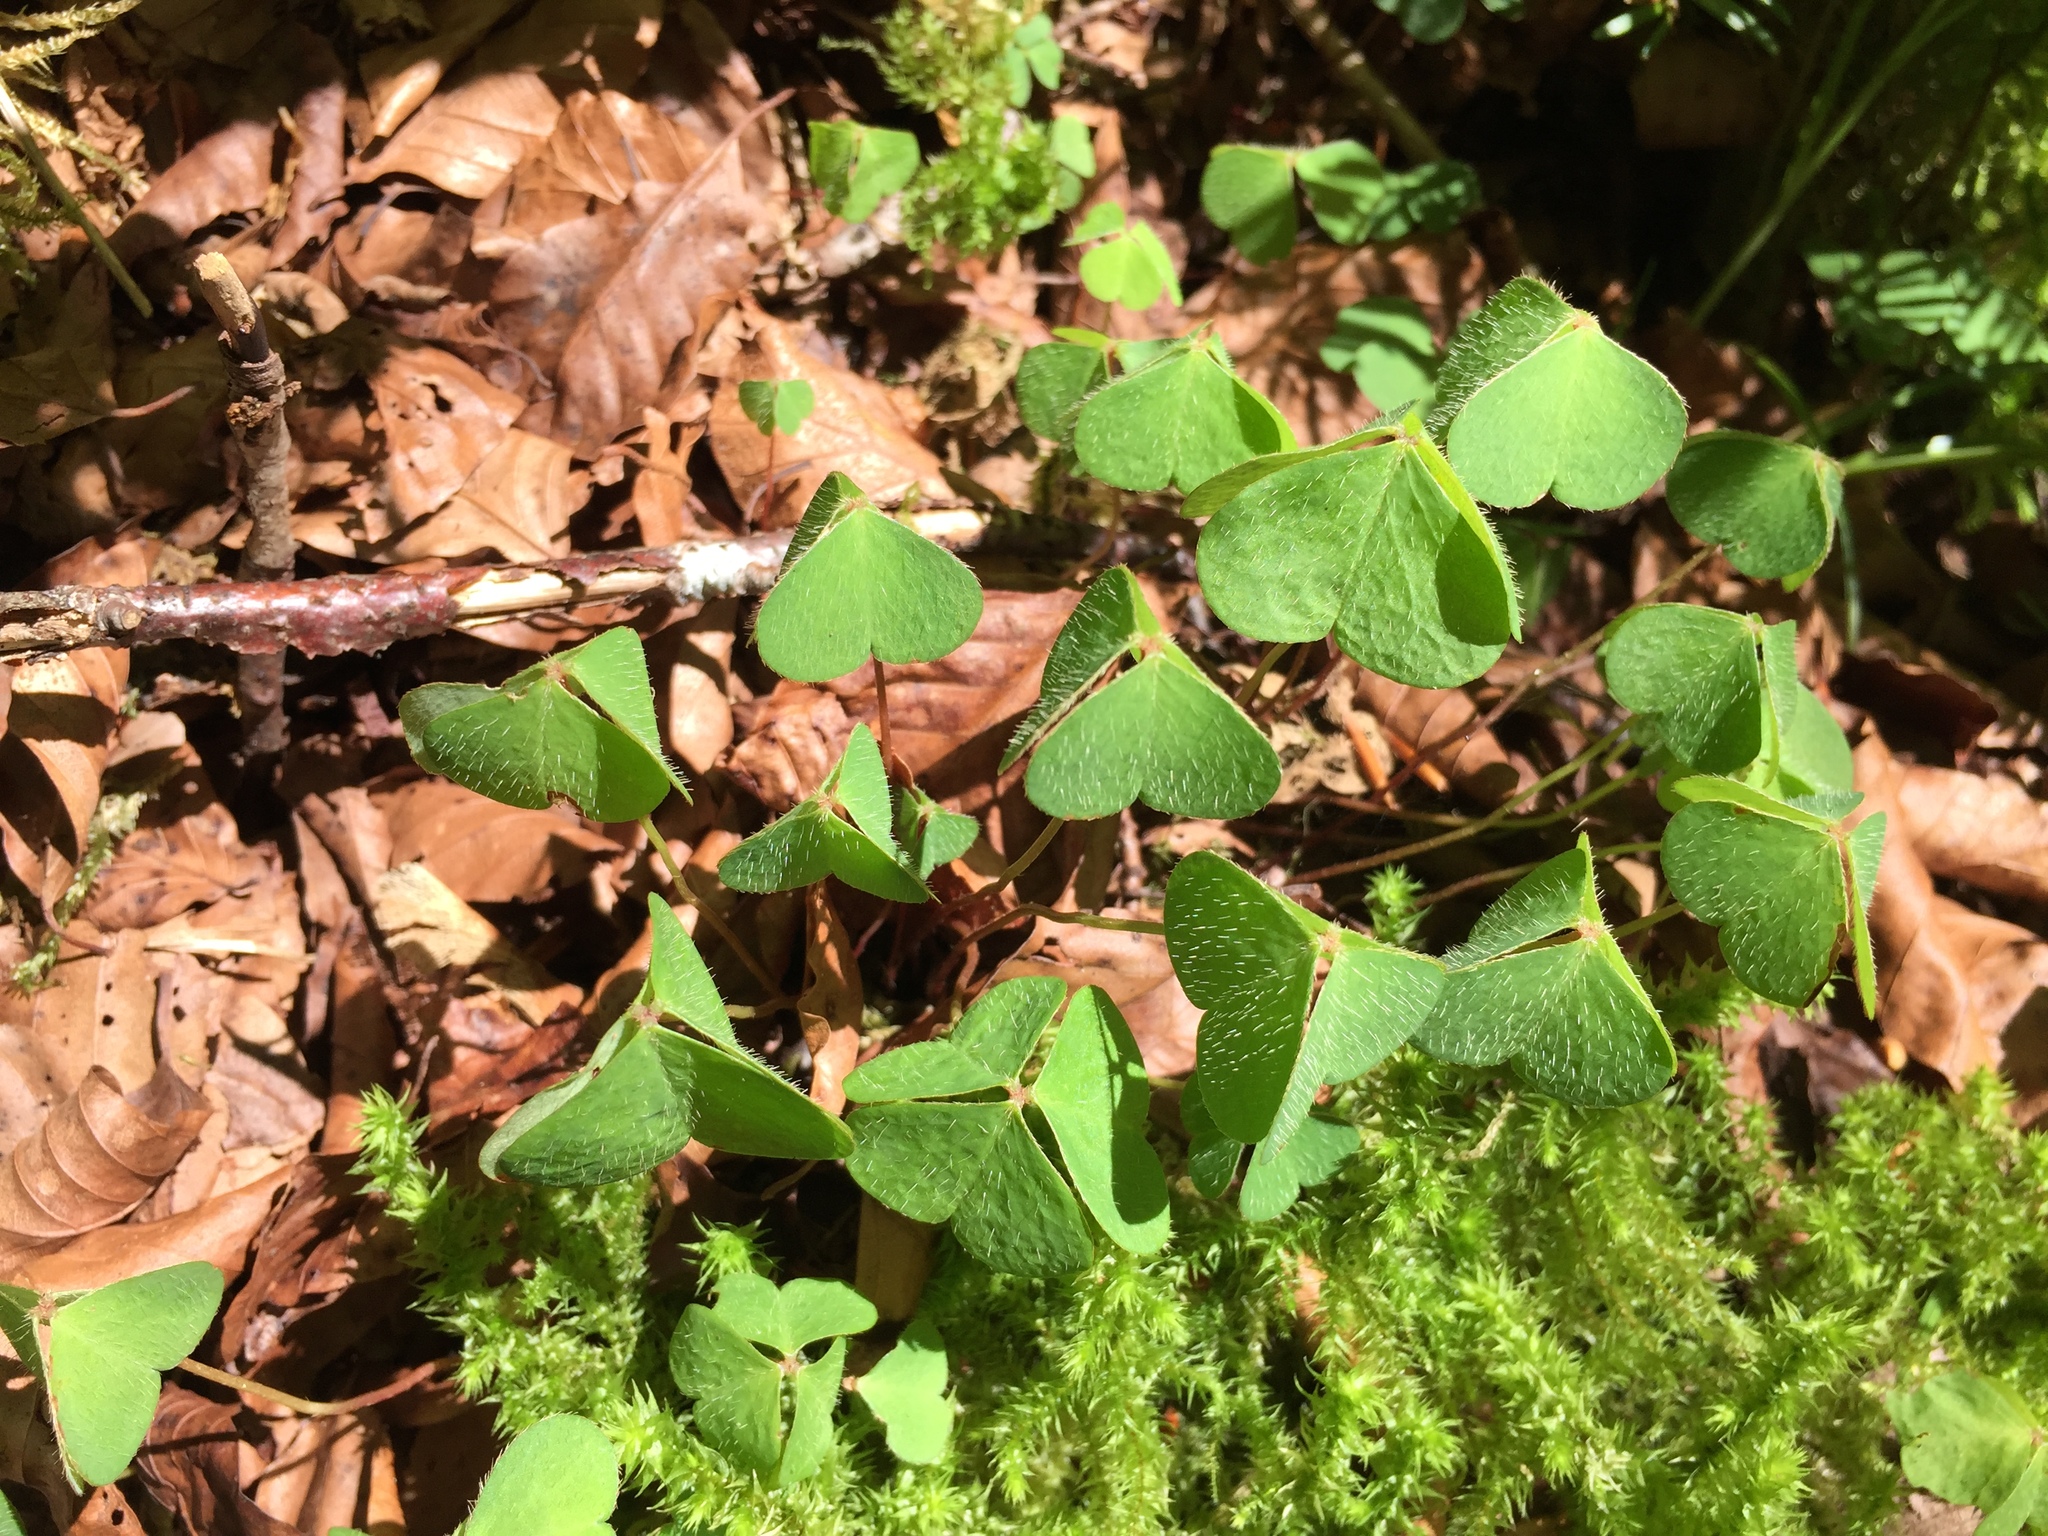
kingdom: Plantae
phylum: Tracheophyta
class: Magnoliopsida
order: Oxalidales
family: Oxalidaceae
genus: Oxalis
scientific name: Oxalis acetosella
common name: Wood-sorrel
